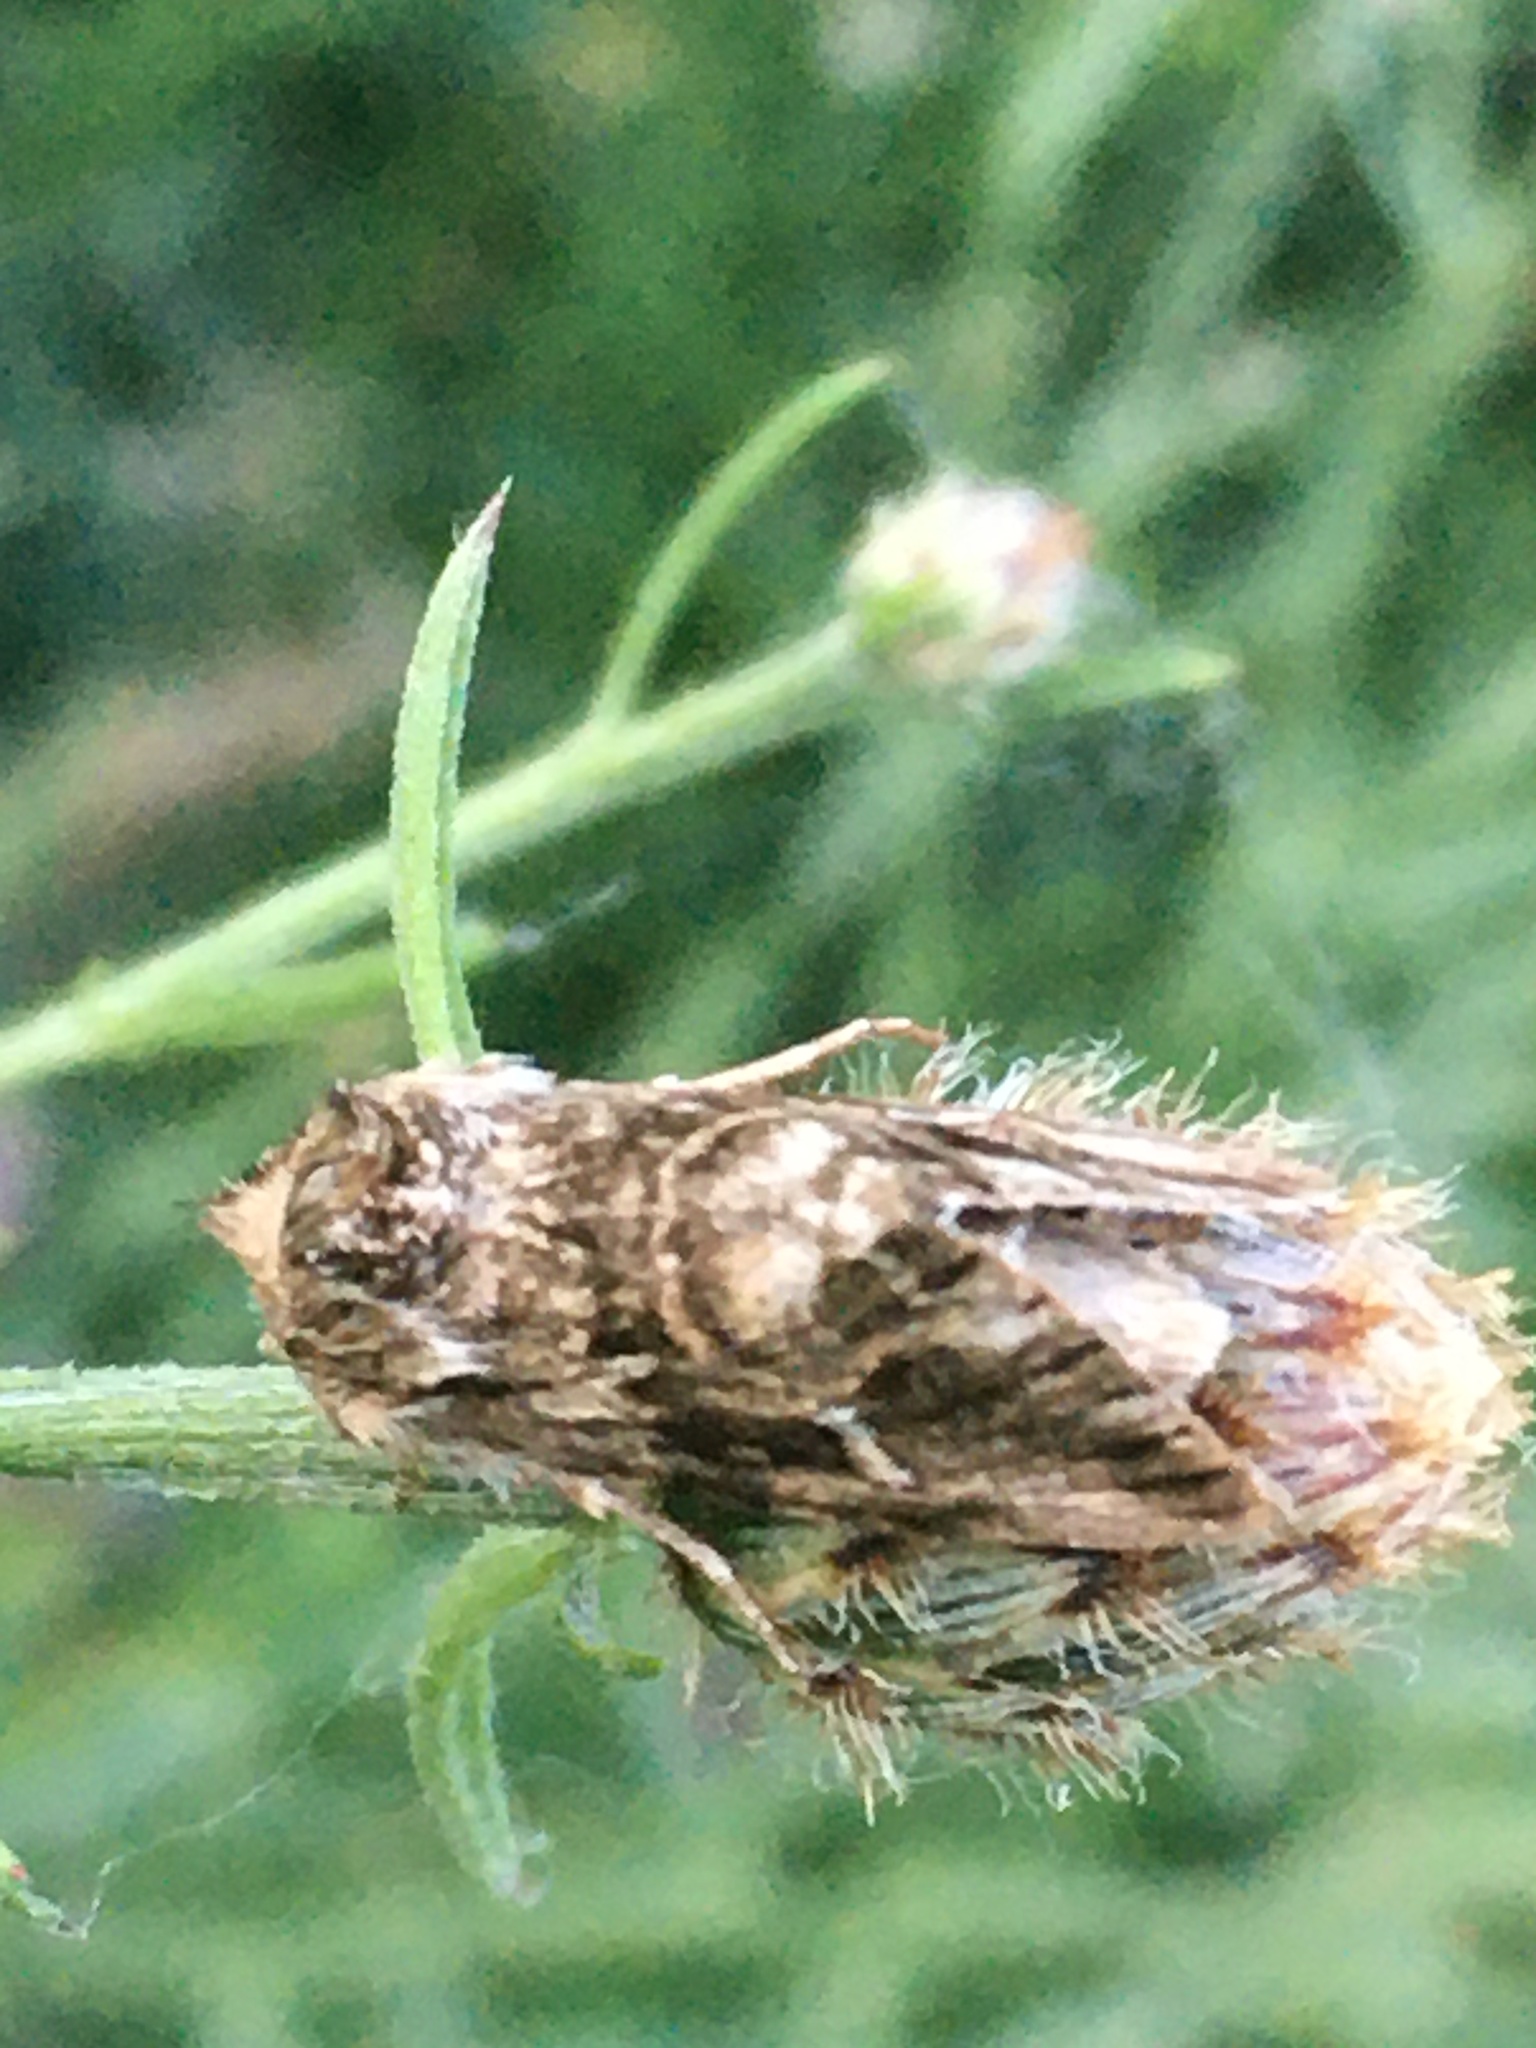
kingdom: Animalia
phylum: Arthropoda
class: Insecta
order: Lepidoptera
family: Noctuidae
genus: Calophasia
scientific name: Calophasia lunula
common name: Toadflax brocade
